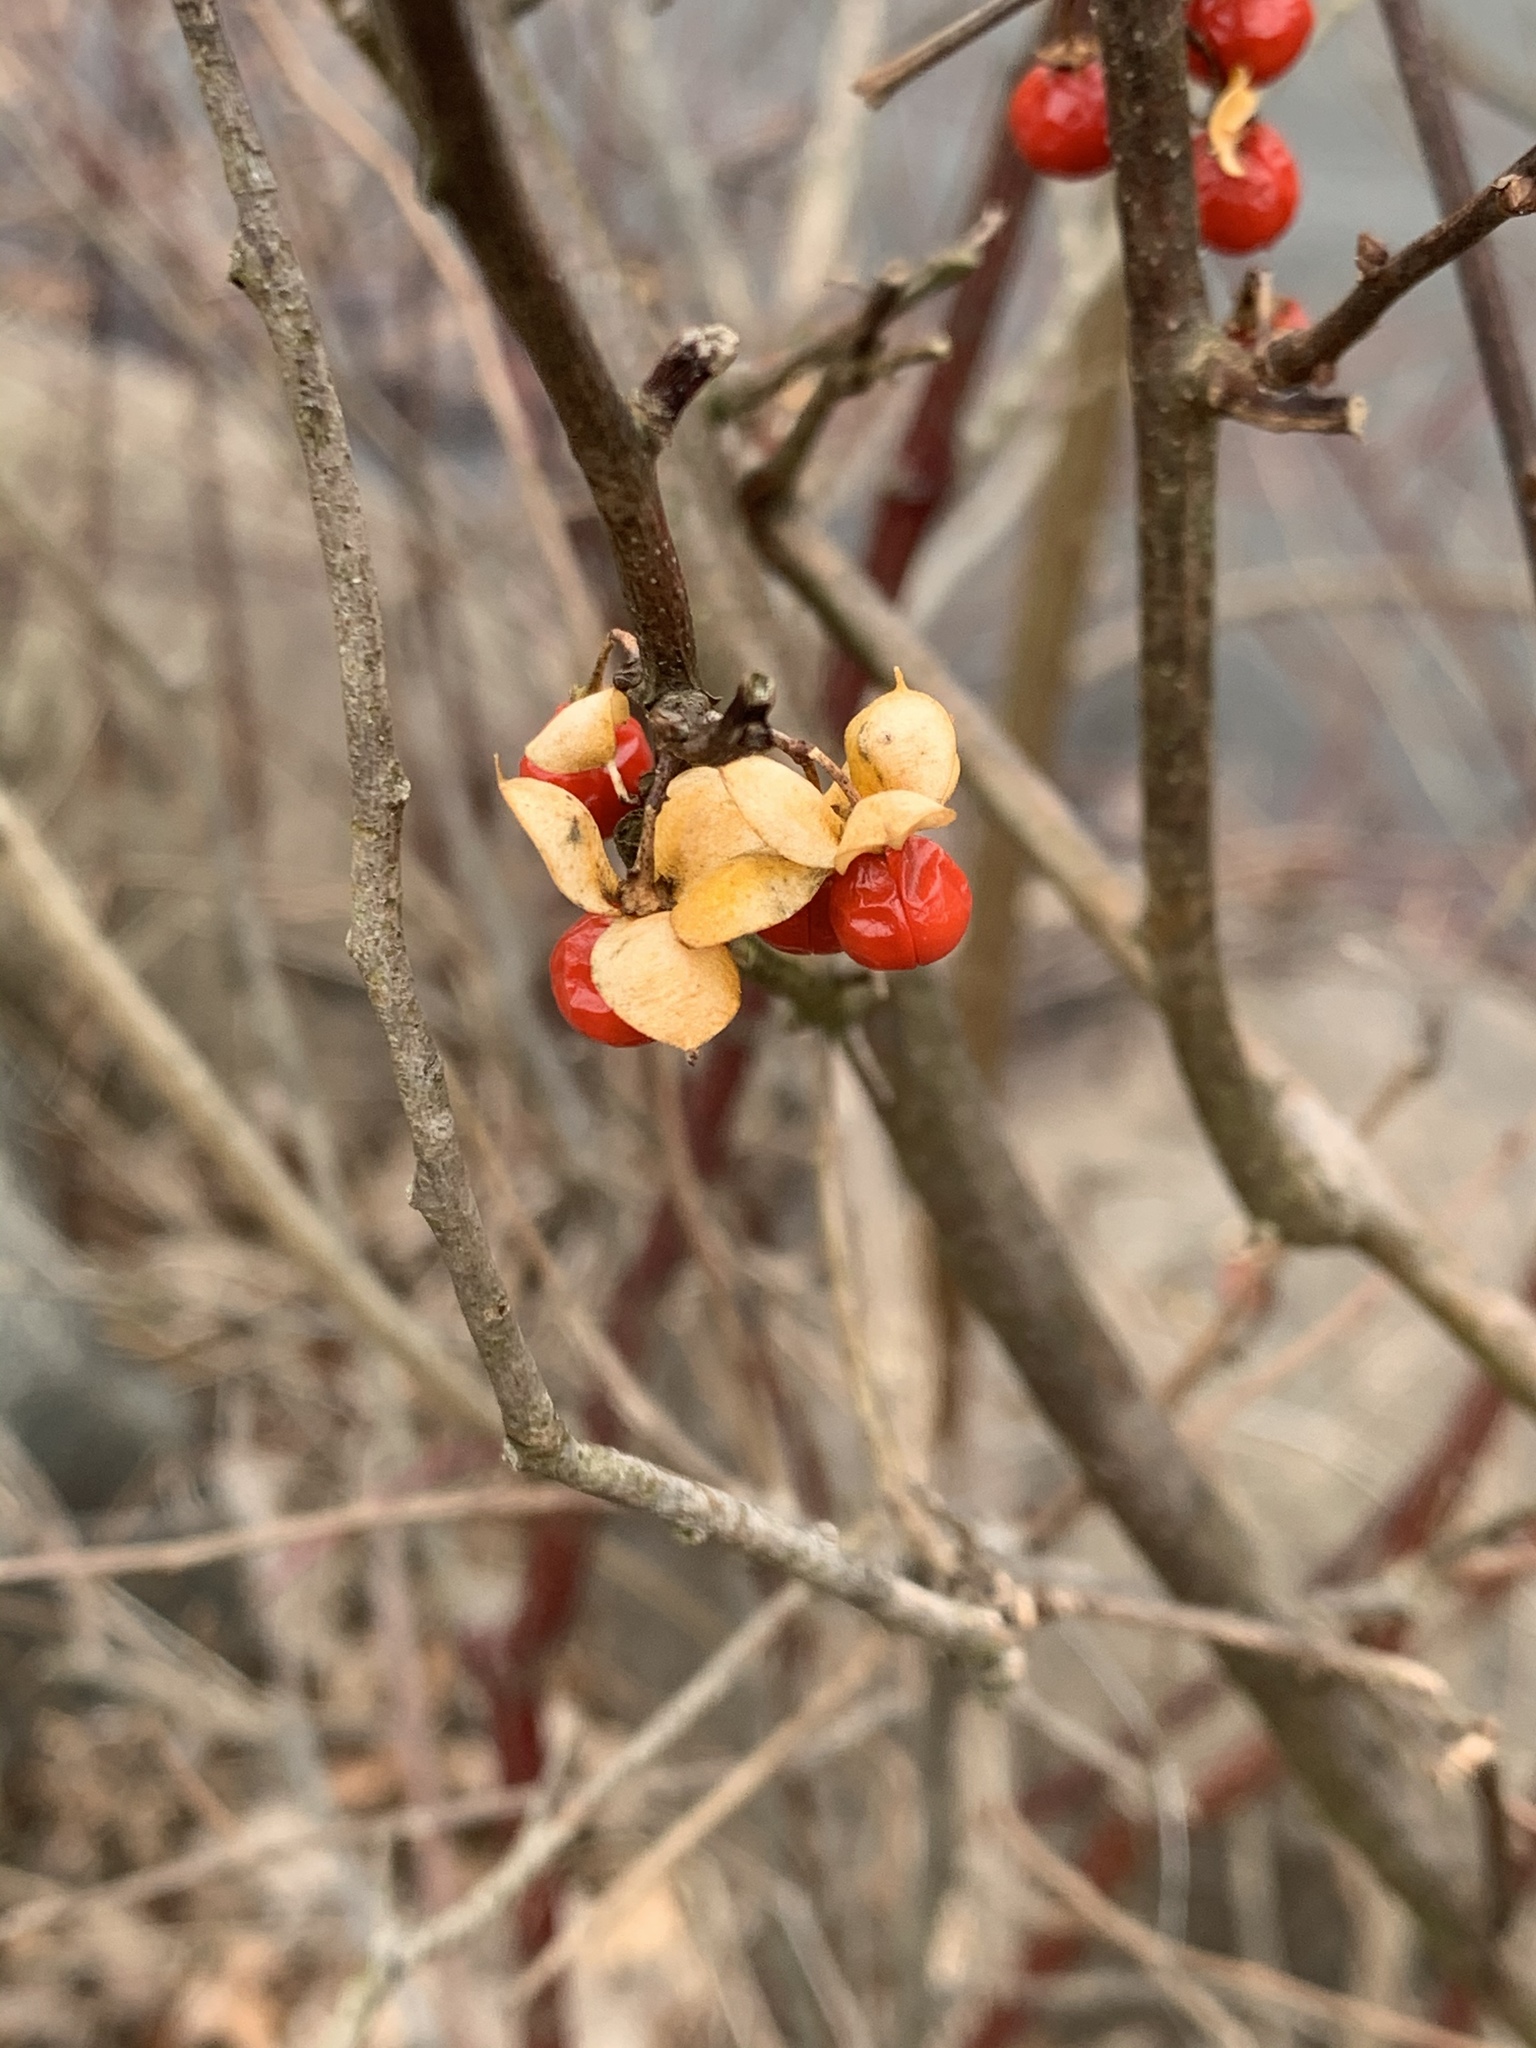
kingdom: Plantae
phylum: Tracheophyta
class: Magnoliopsida
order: Celastrales
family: Celastraceae
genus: Celastrus
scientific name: Celastrus orbiculatus
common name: Oriental bittersweet
